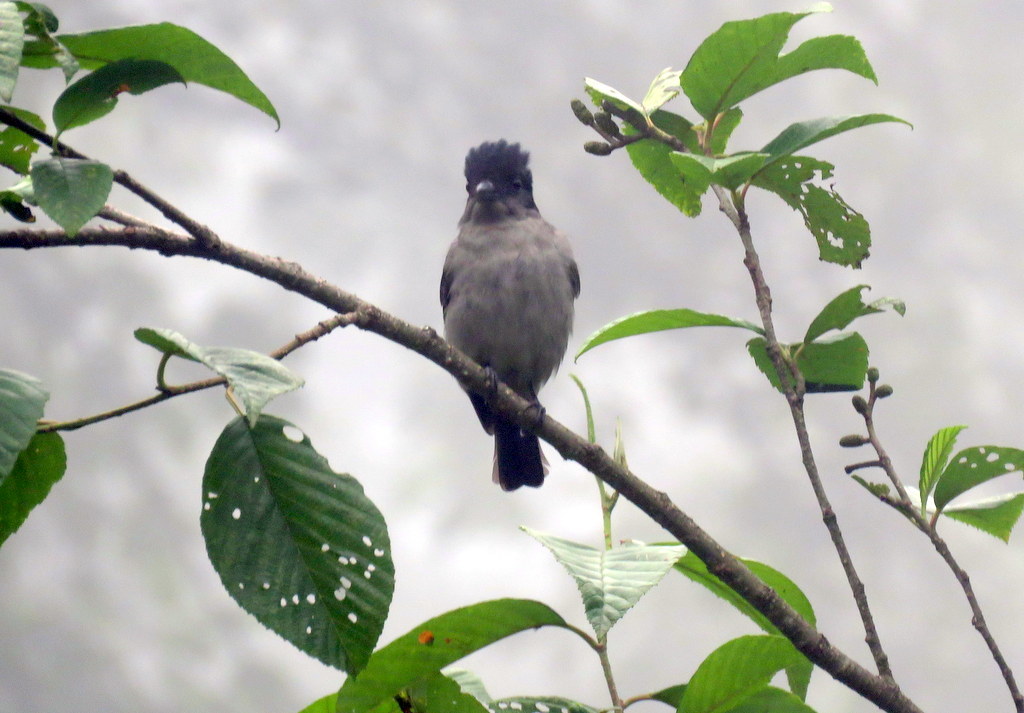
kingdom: Animalia
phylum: Chordata
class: Aves
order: Passeriformes
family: Cotingidae
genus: Pachyramphus
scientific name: Pachyramphus validus
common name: Crested becard
